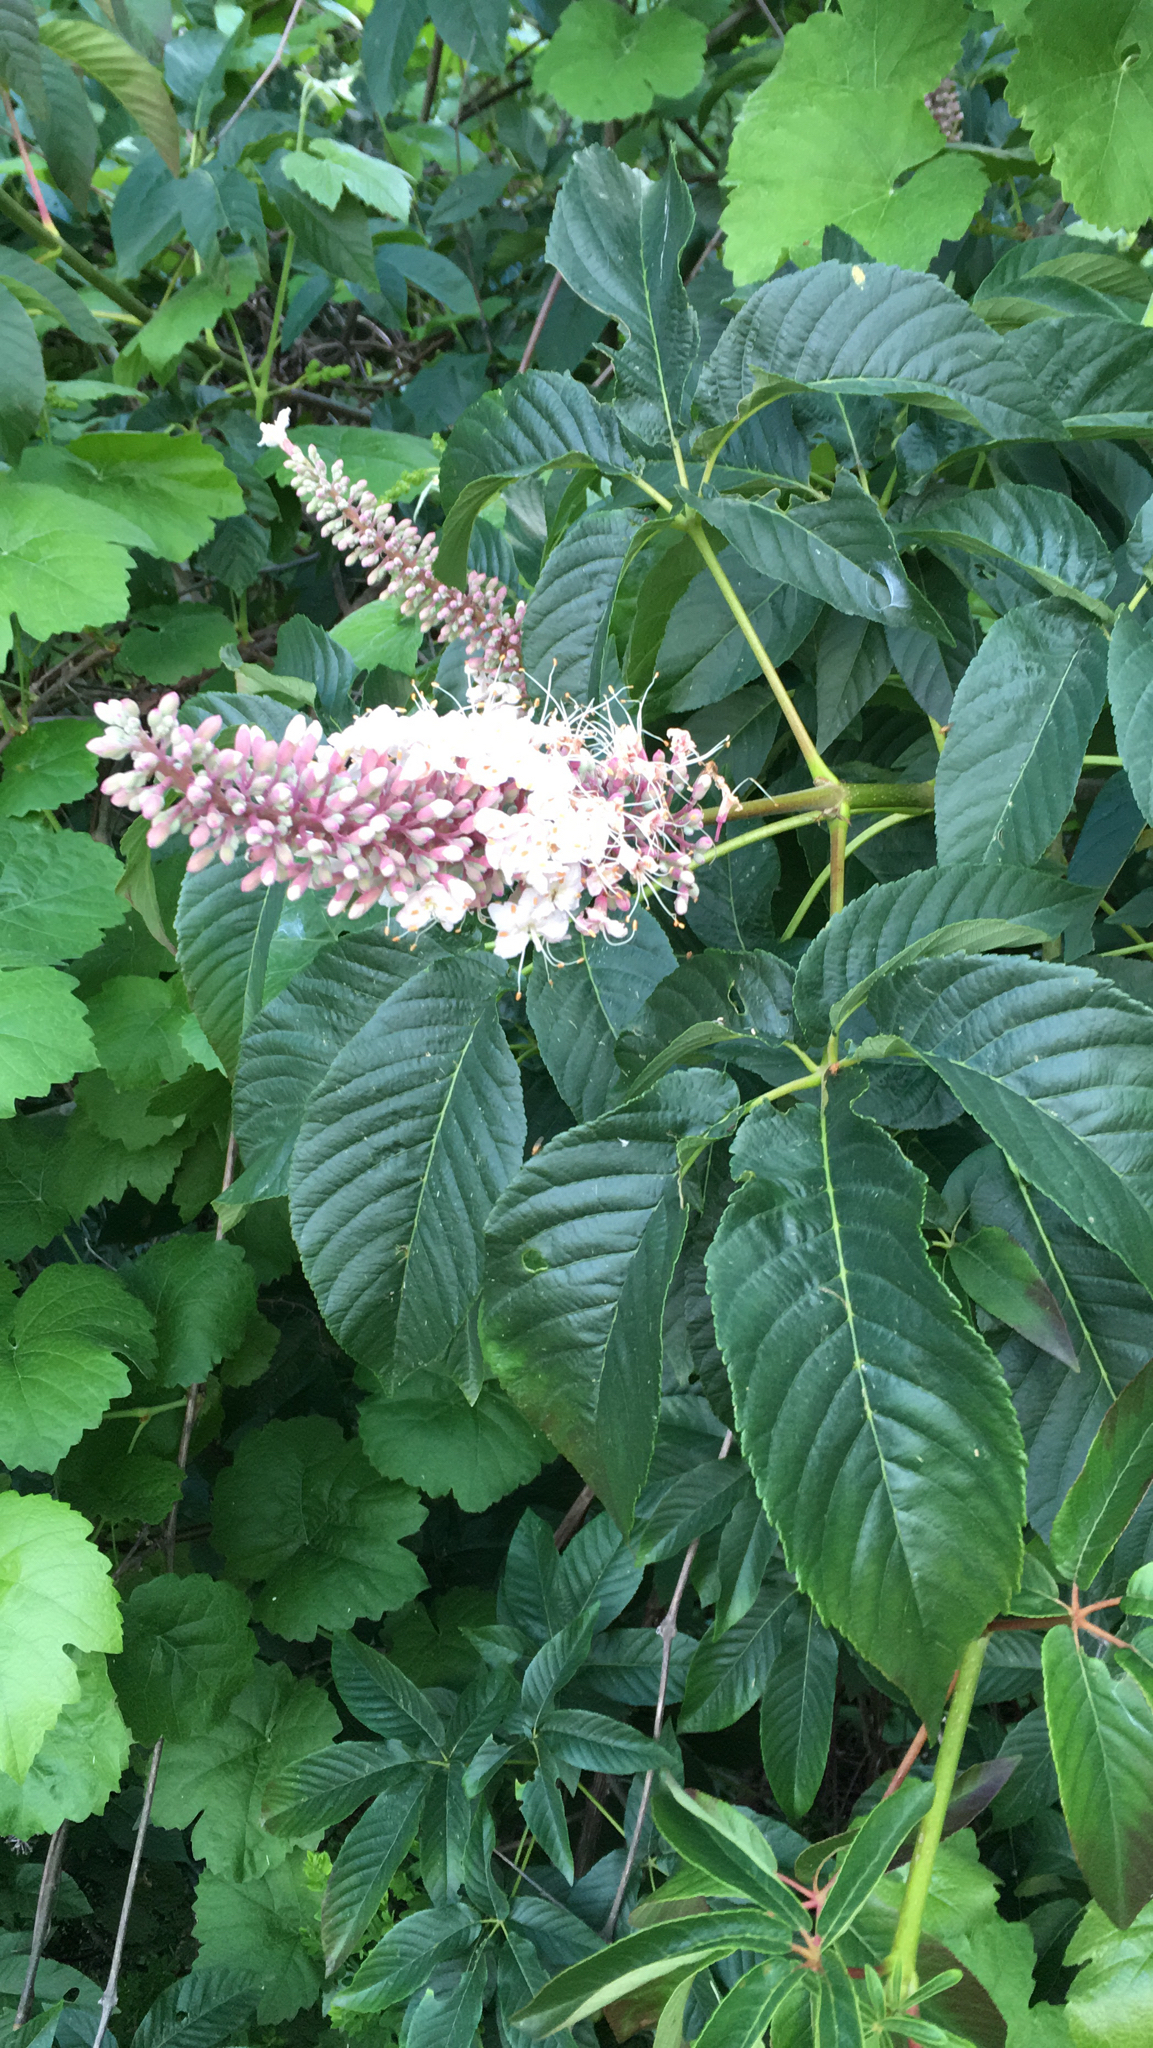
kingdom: Plantae
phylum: Tracheophyta
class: Magnoliopsida
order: Sapindales
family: Sapindaceae
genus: Aesculus
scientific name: Aesculus californica
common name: California buckeye
